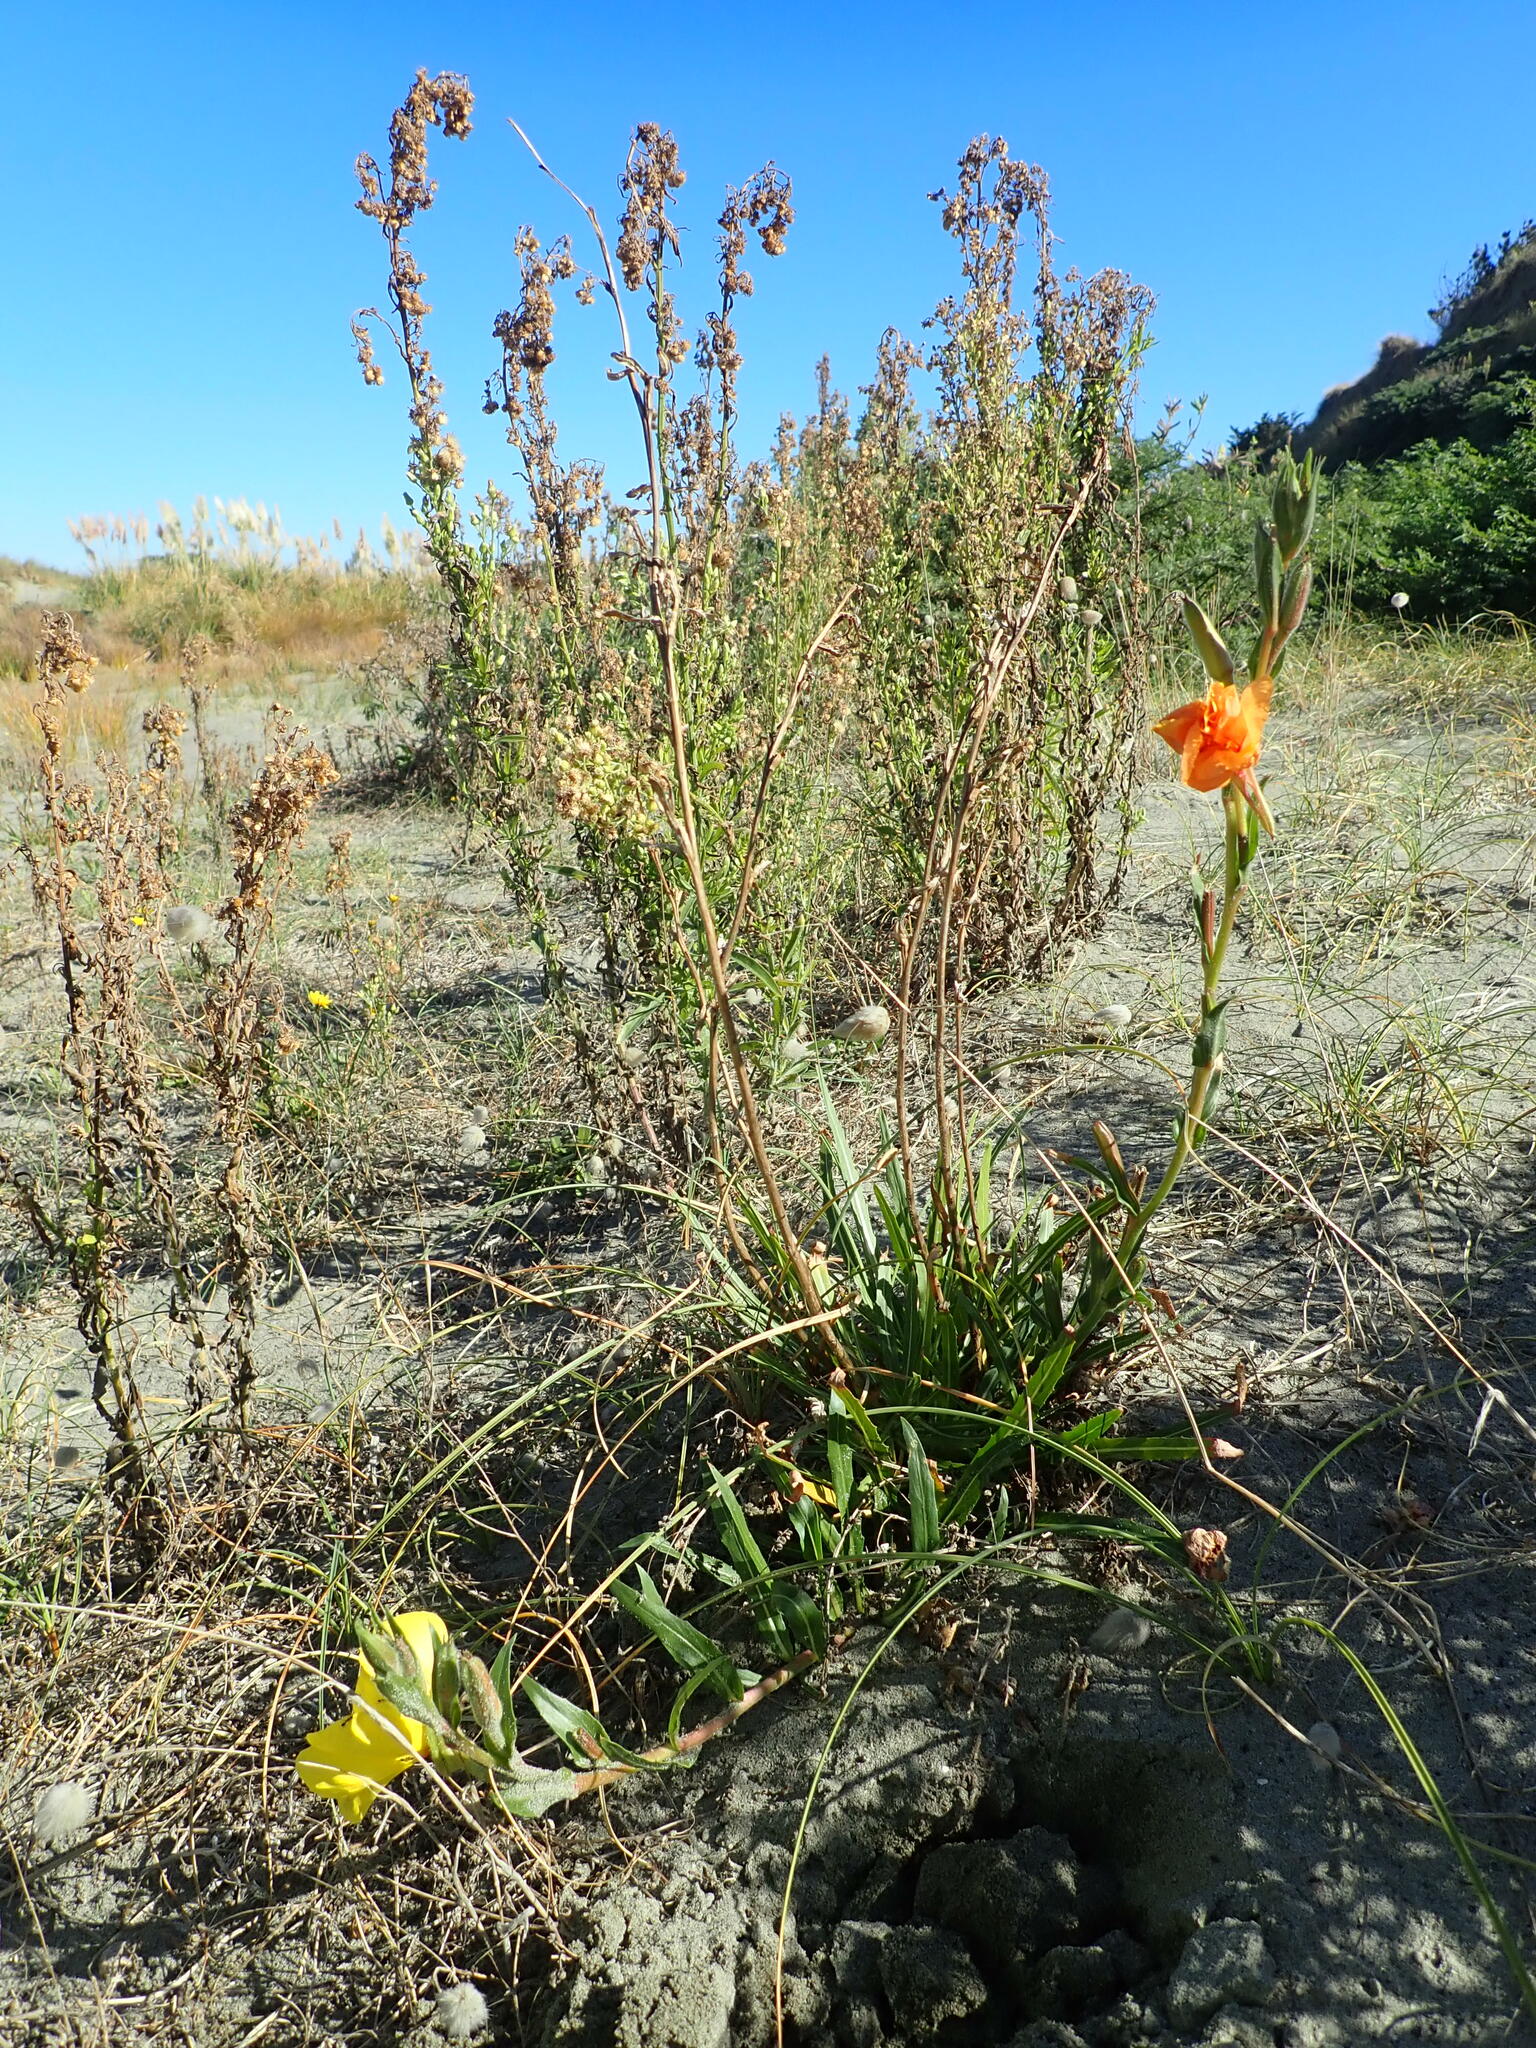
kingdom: Plantae
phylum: Tracheophyta
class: Magnoliopsida
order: Myrtales
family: Onagraceae
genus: Oenothera
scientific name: Oenothera stricta
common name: Fragrant evening-primrose
